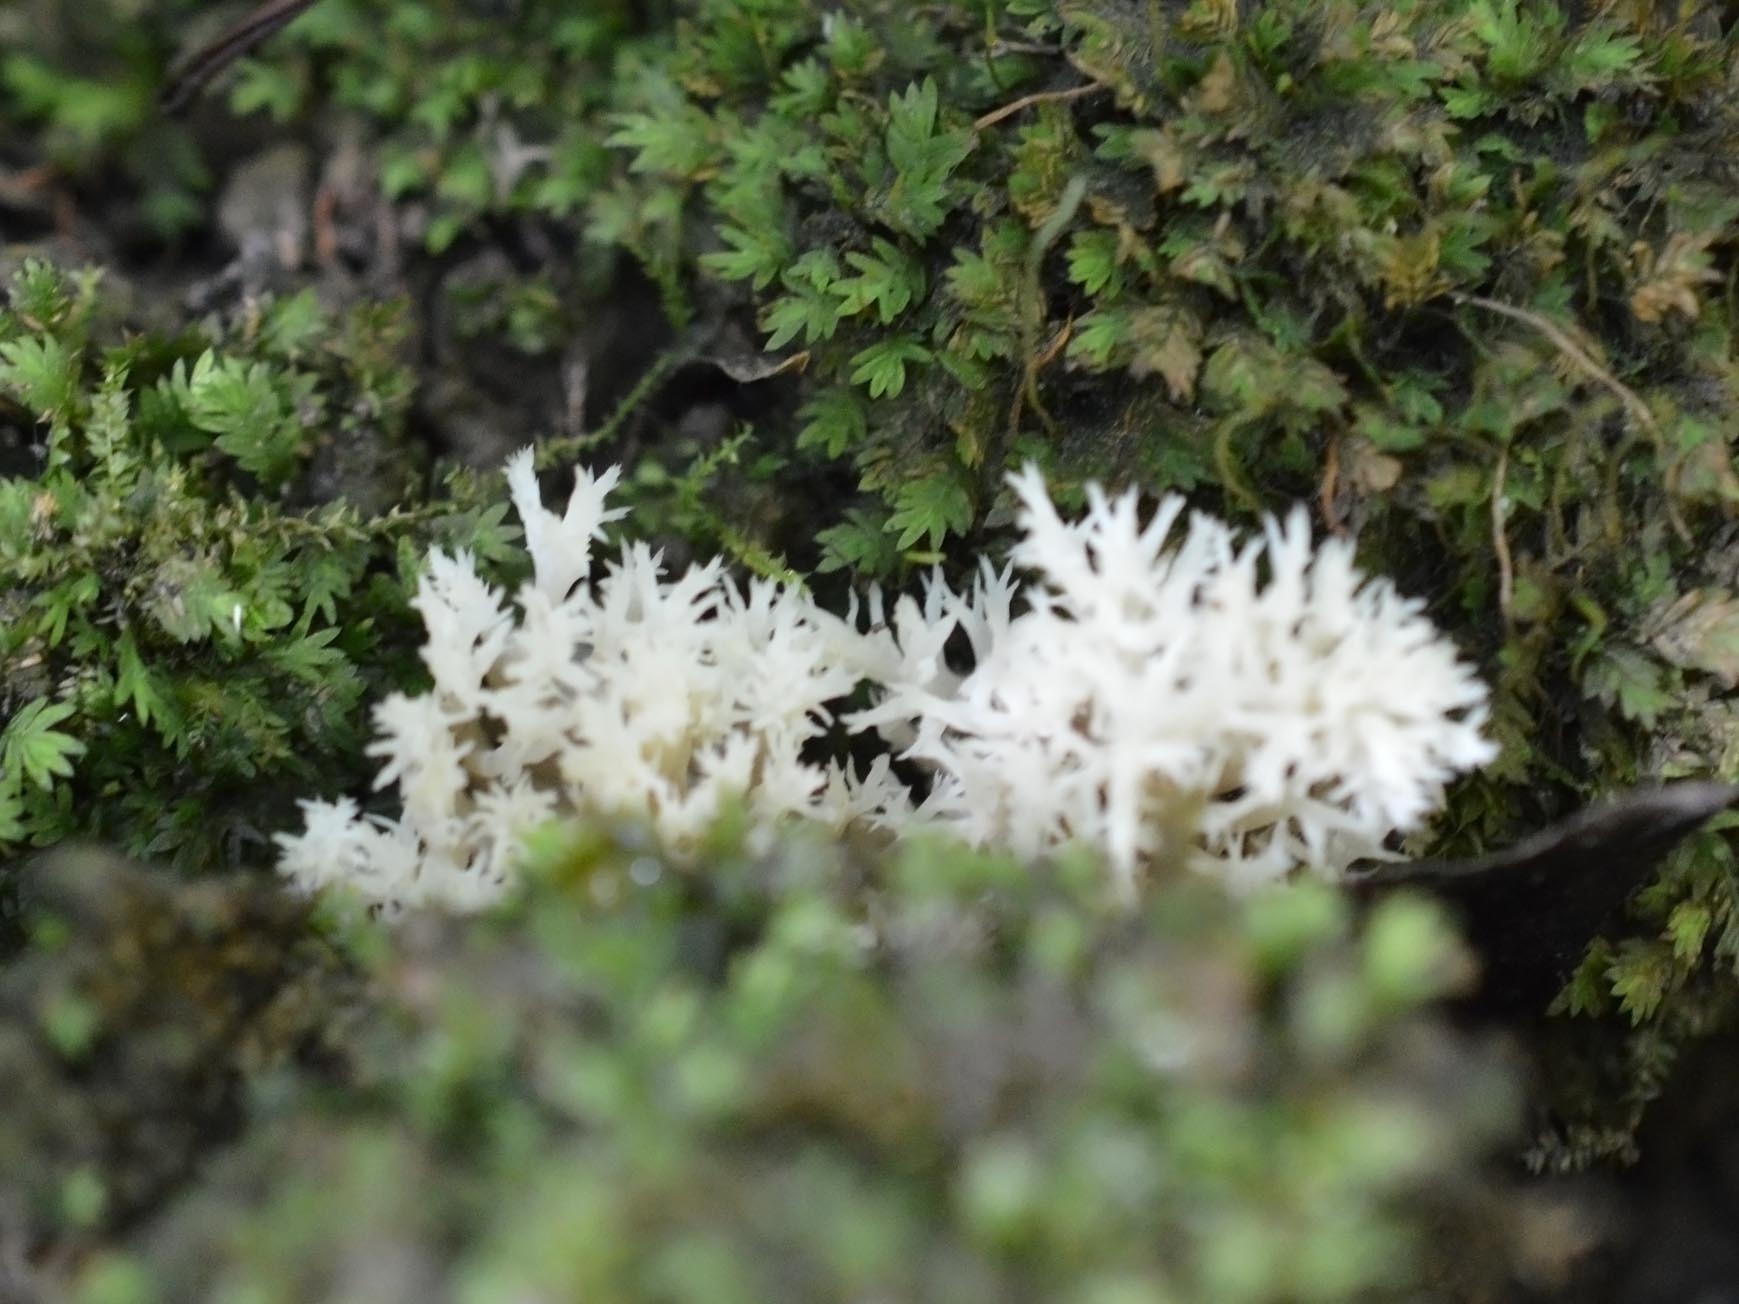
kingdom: Fungi
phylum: Basidiomycota
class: Agaricomycetes
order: Cantharellales
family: Hydnaceae
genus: Clavulina
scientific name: Clavulina coralloides
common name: Crested coral
